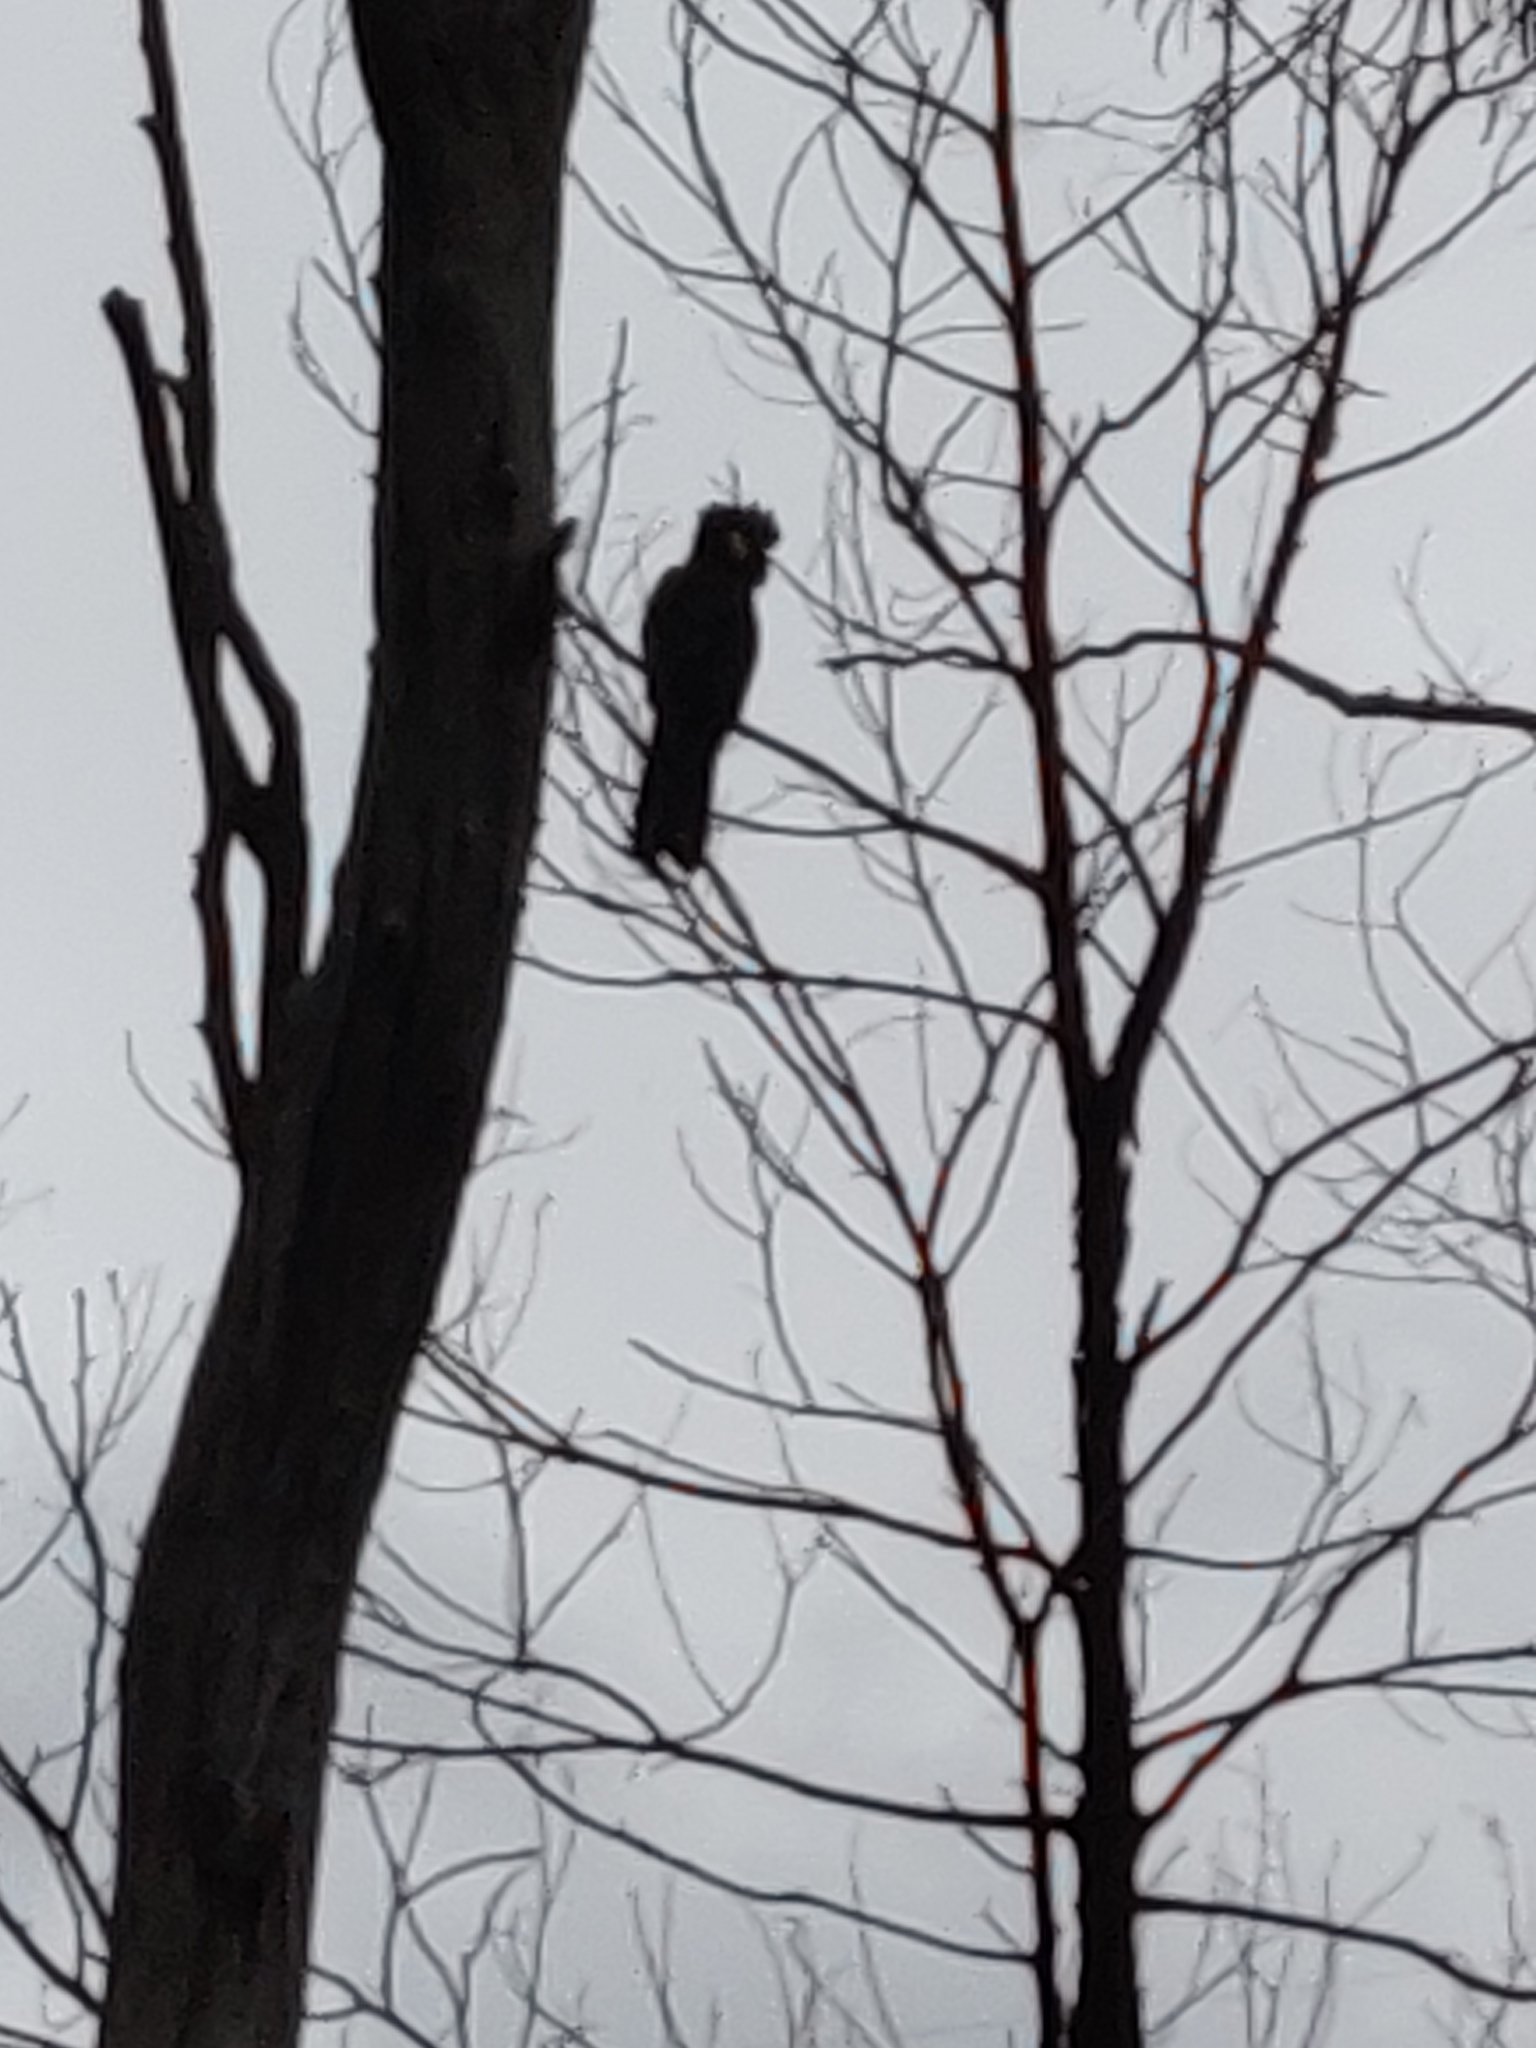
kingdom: Animalia
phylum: Chordata
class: Aves
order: Psittaciformes
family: Cacatuidae
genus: Zanda
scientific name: Zanda funerea
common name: Yellow-tailed black-cockatoo
